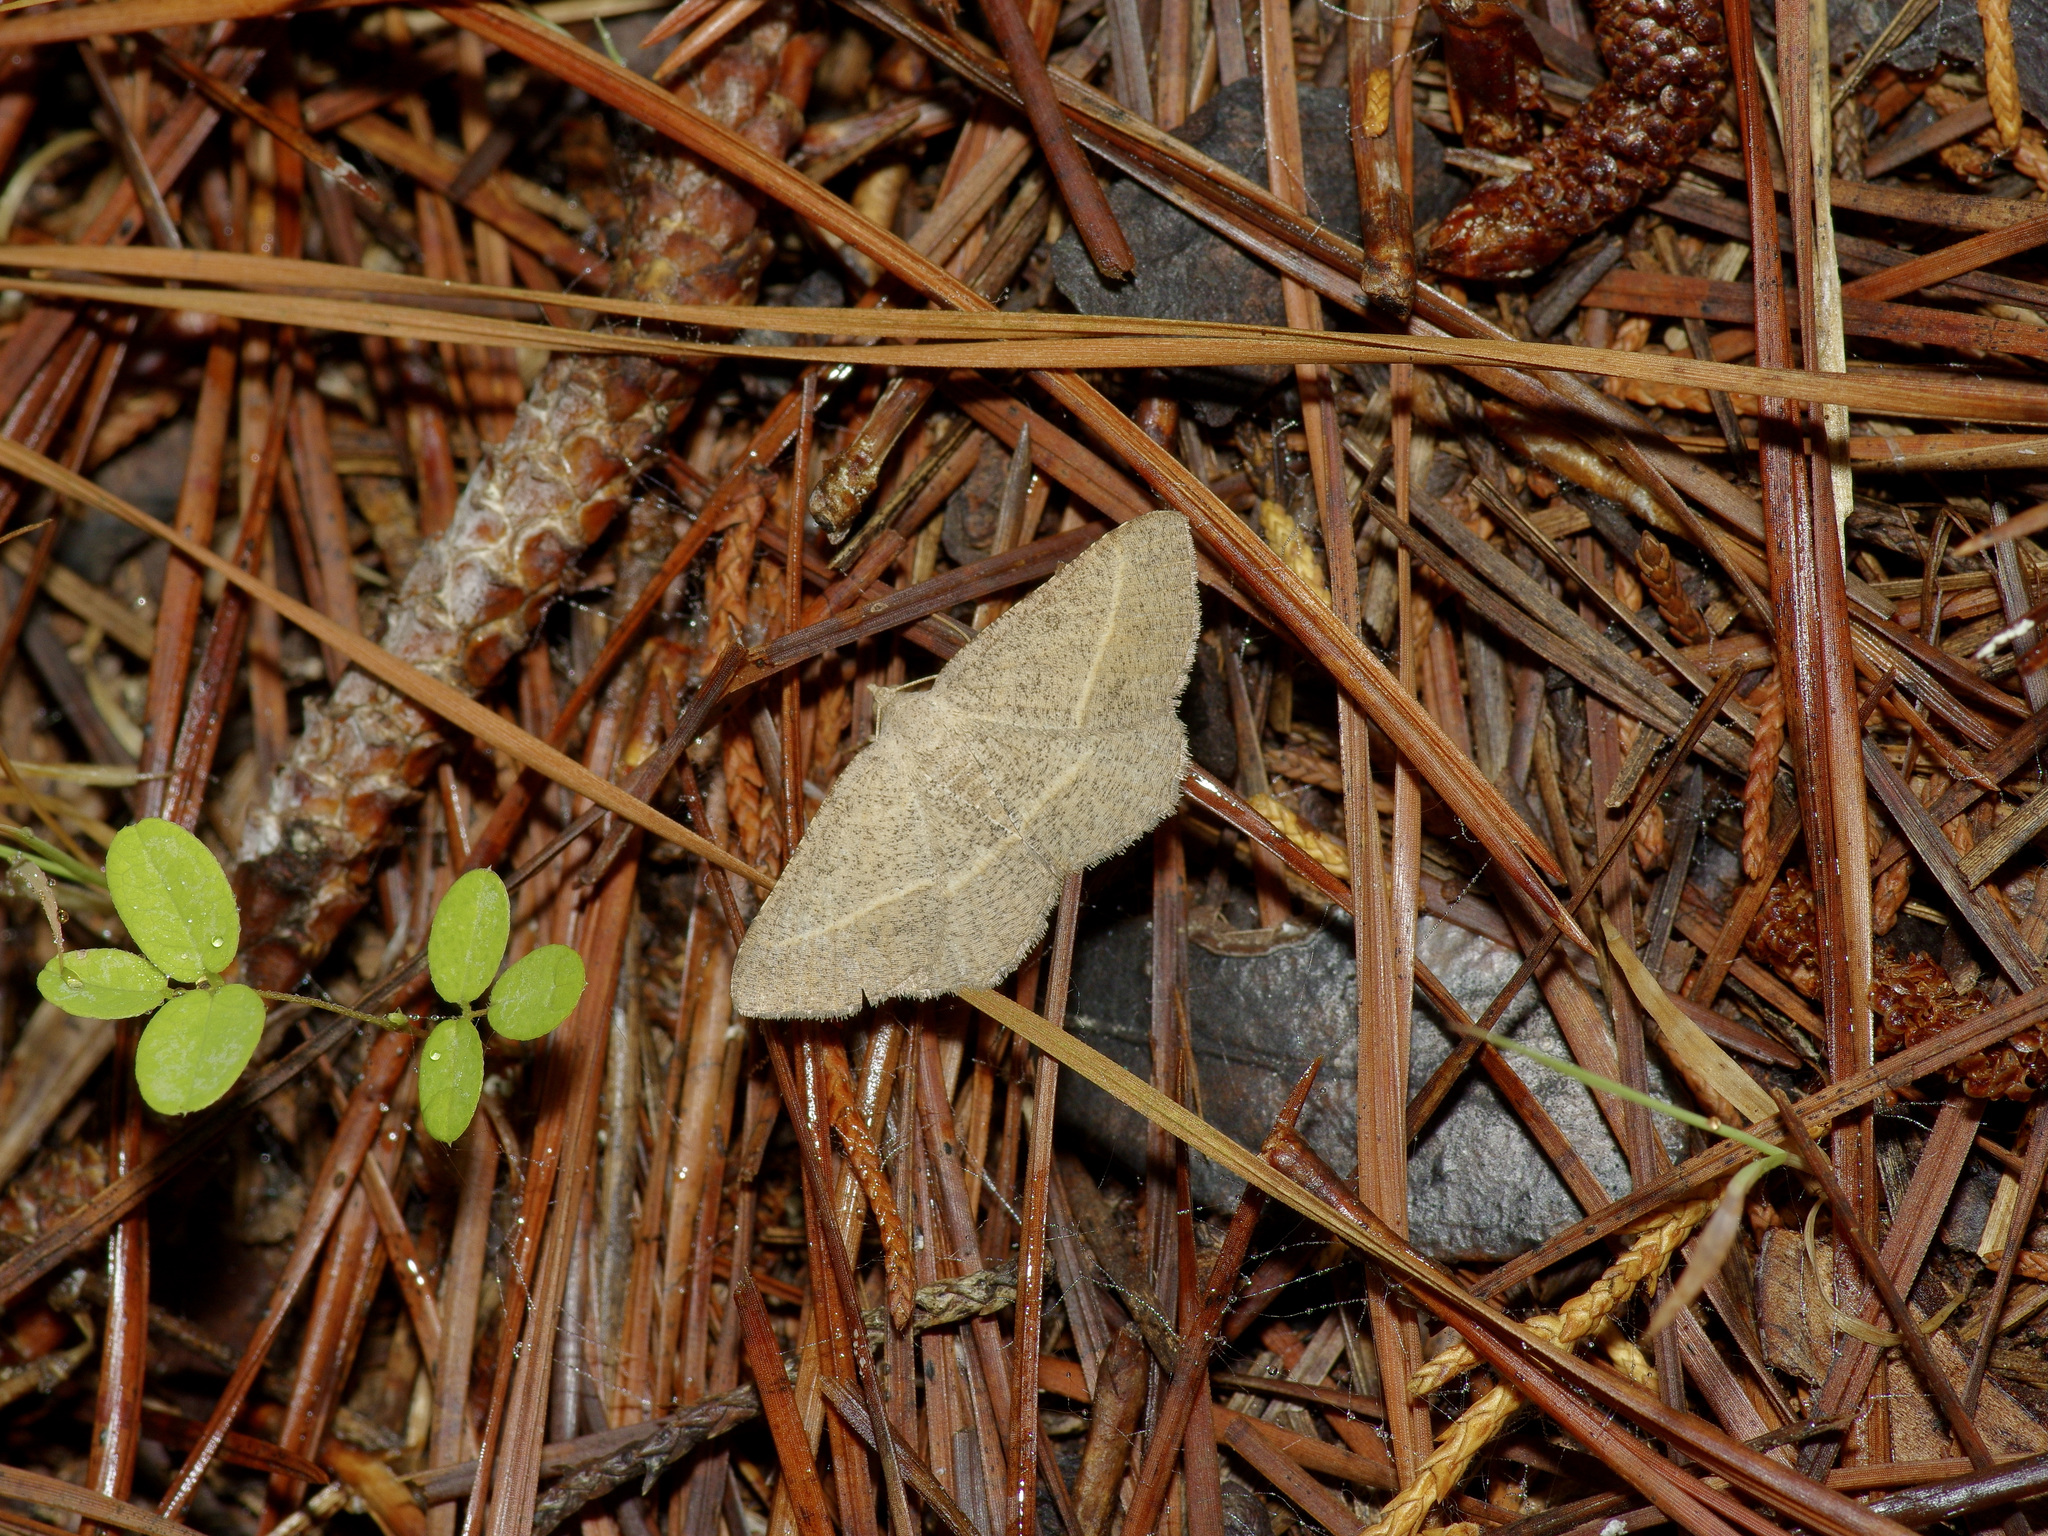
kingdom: Animalia
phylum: Arthropoda
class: Insecta
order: Lepidoptera
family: Geometridae
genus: Digrammia
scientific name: Digrammia irrorata
